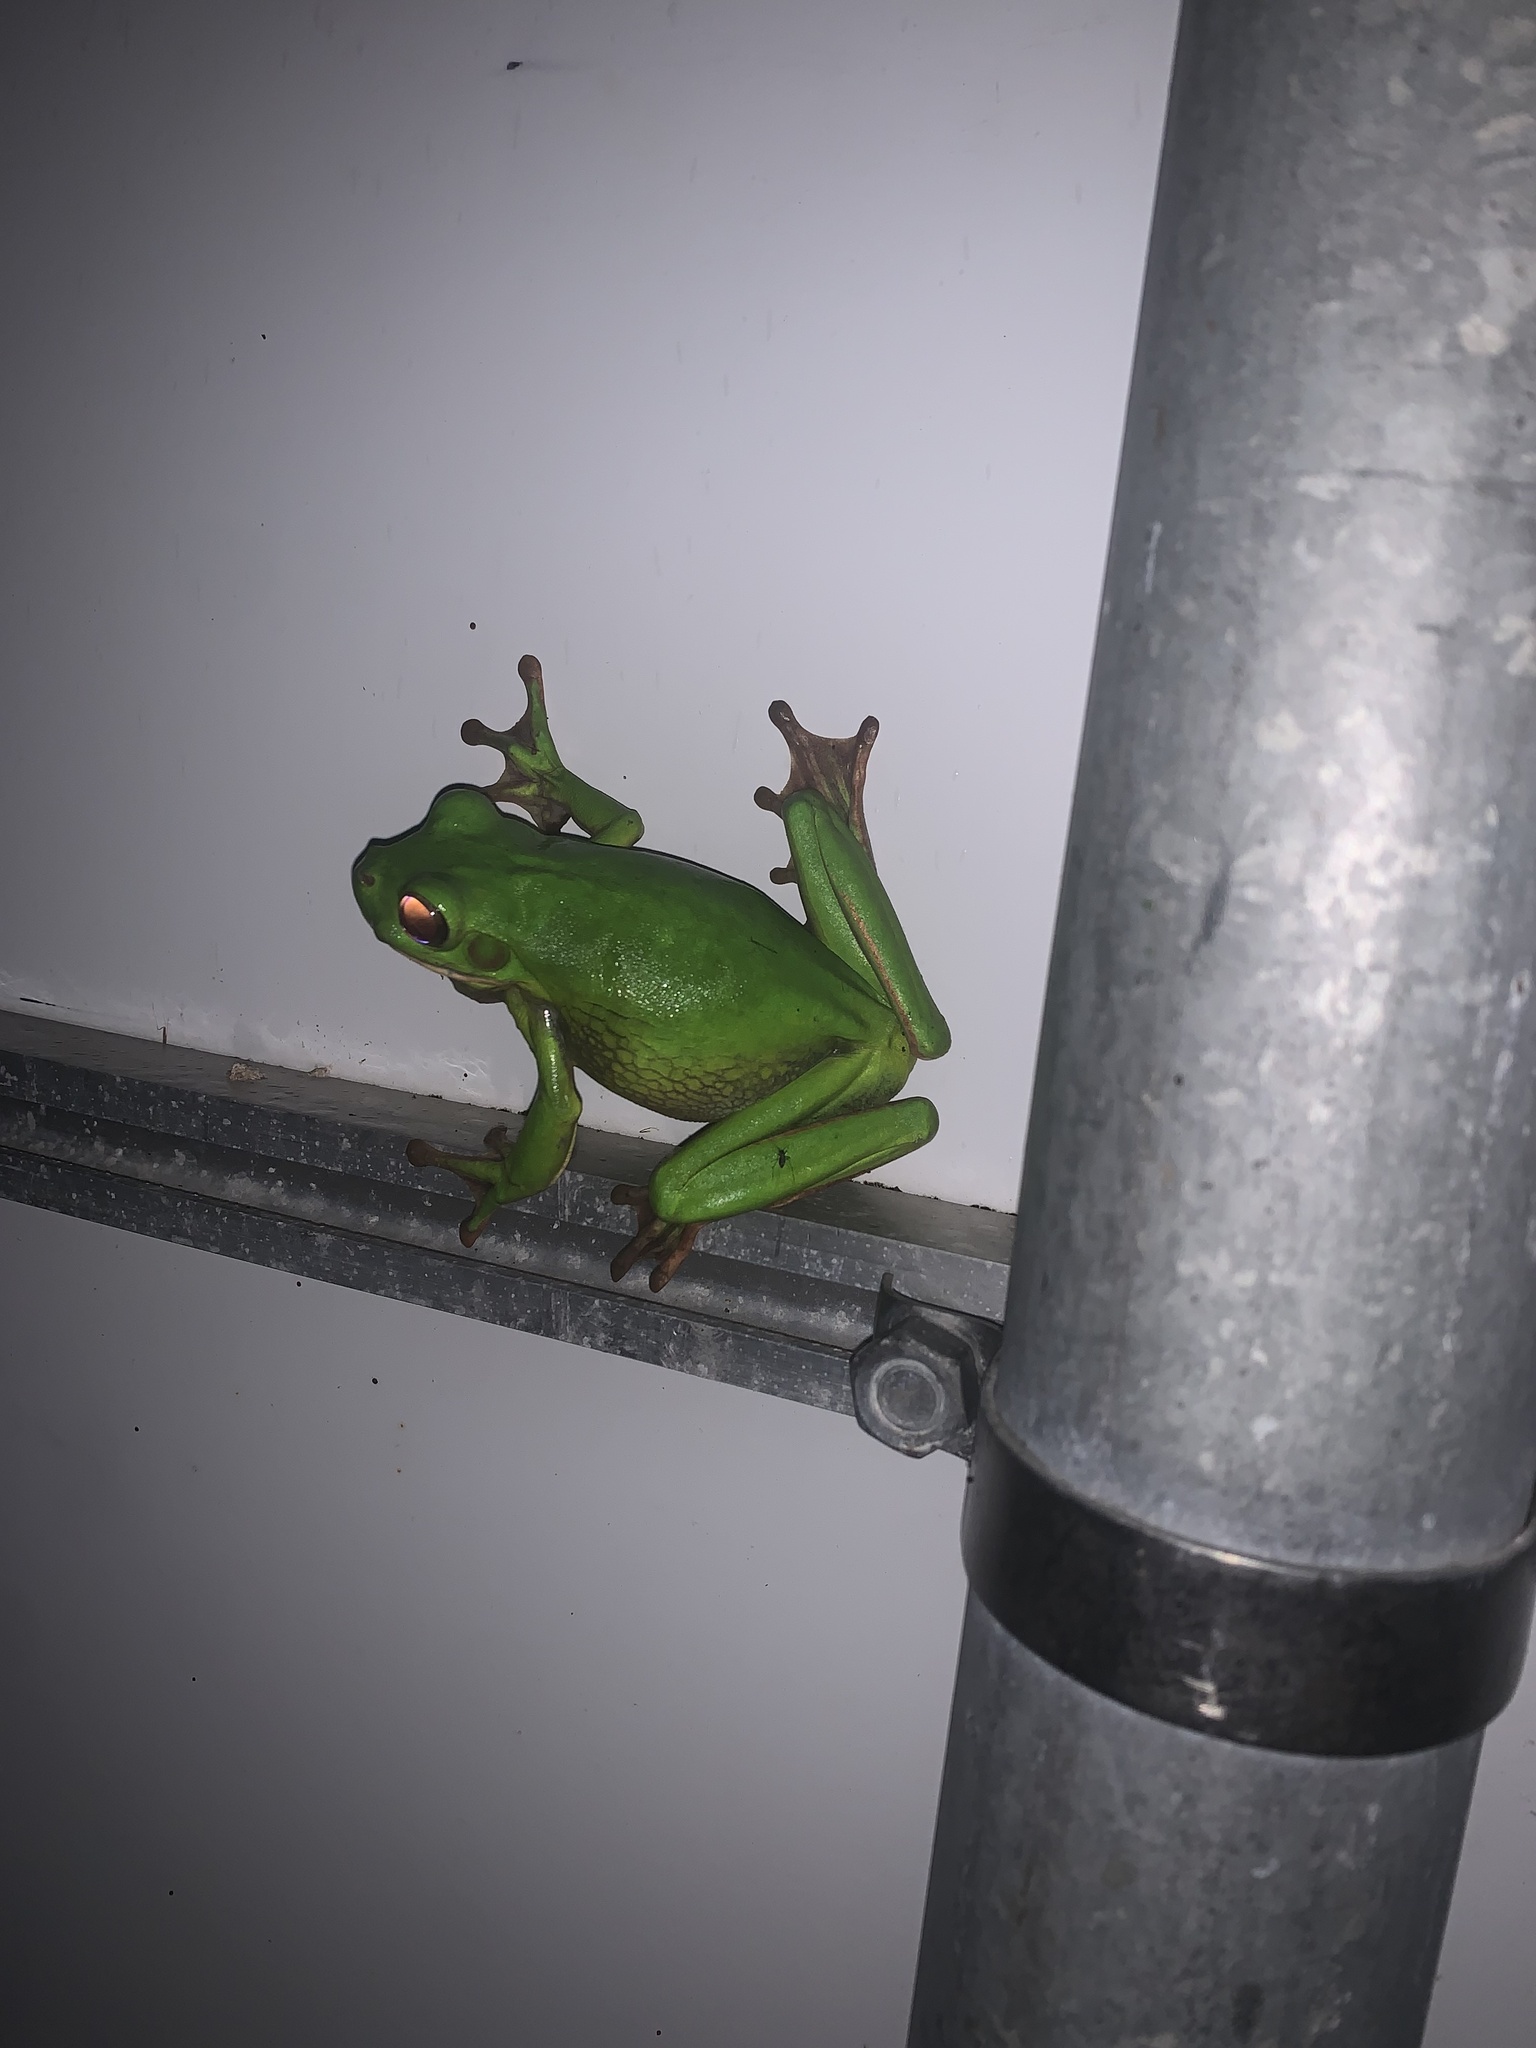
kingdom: Animalia
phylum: Chordata
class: Amphibia
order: Anura
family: Pelodryadidae
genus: Nyctimystes
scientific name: Nyctimystes infrafrenatus
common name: Australian giant treefrog
